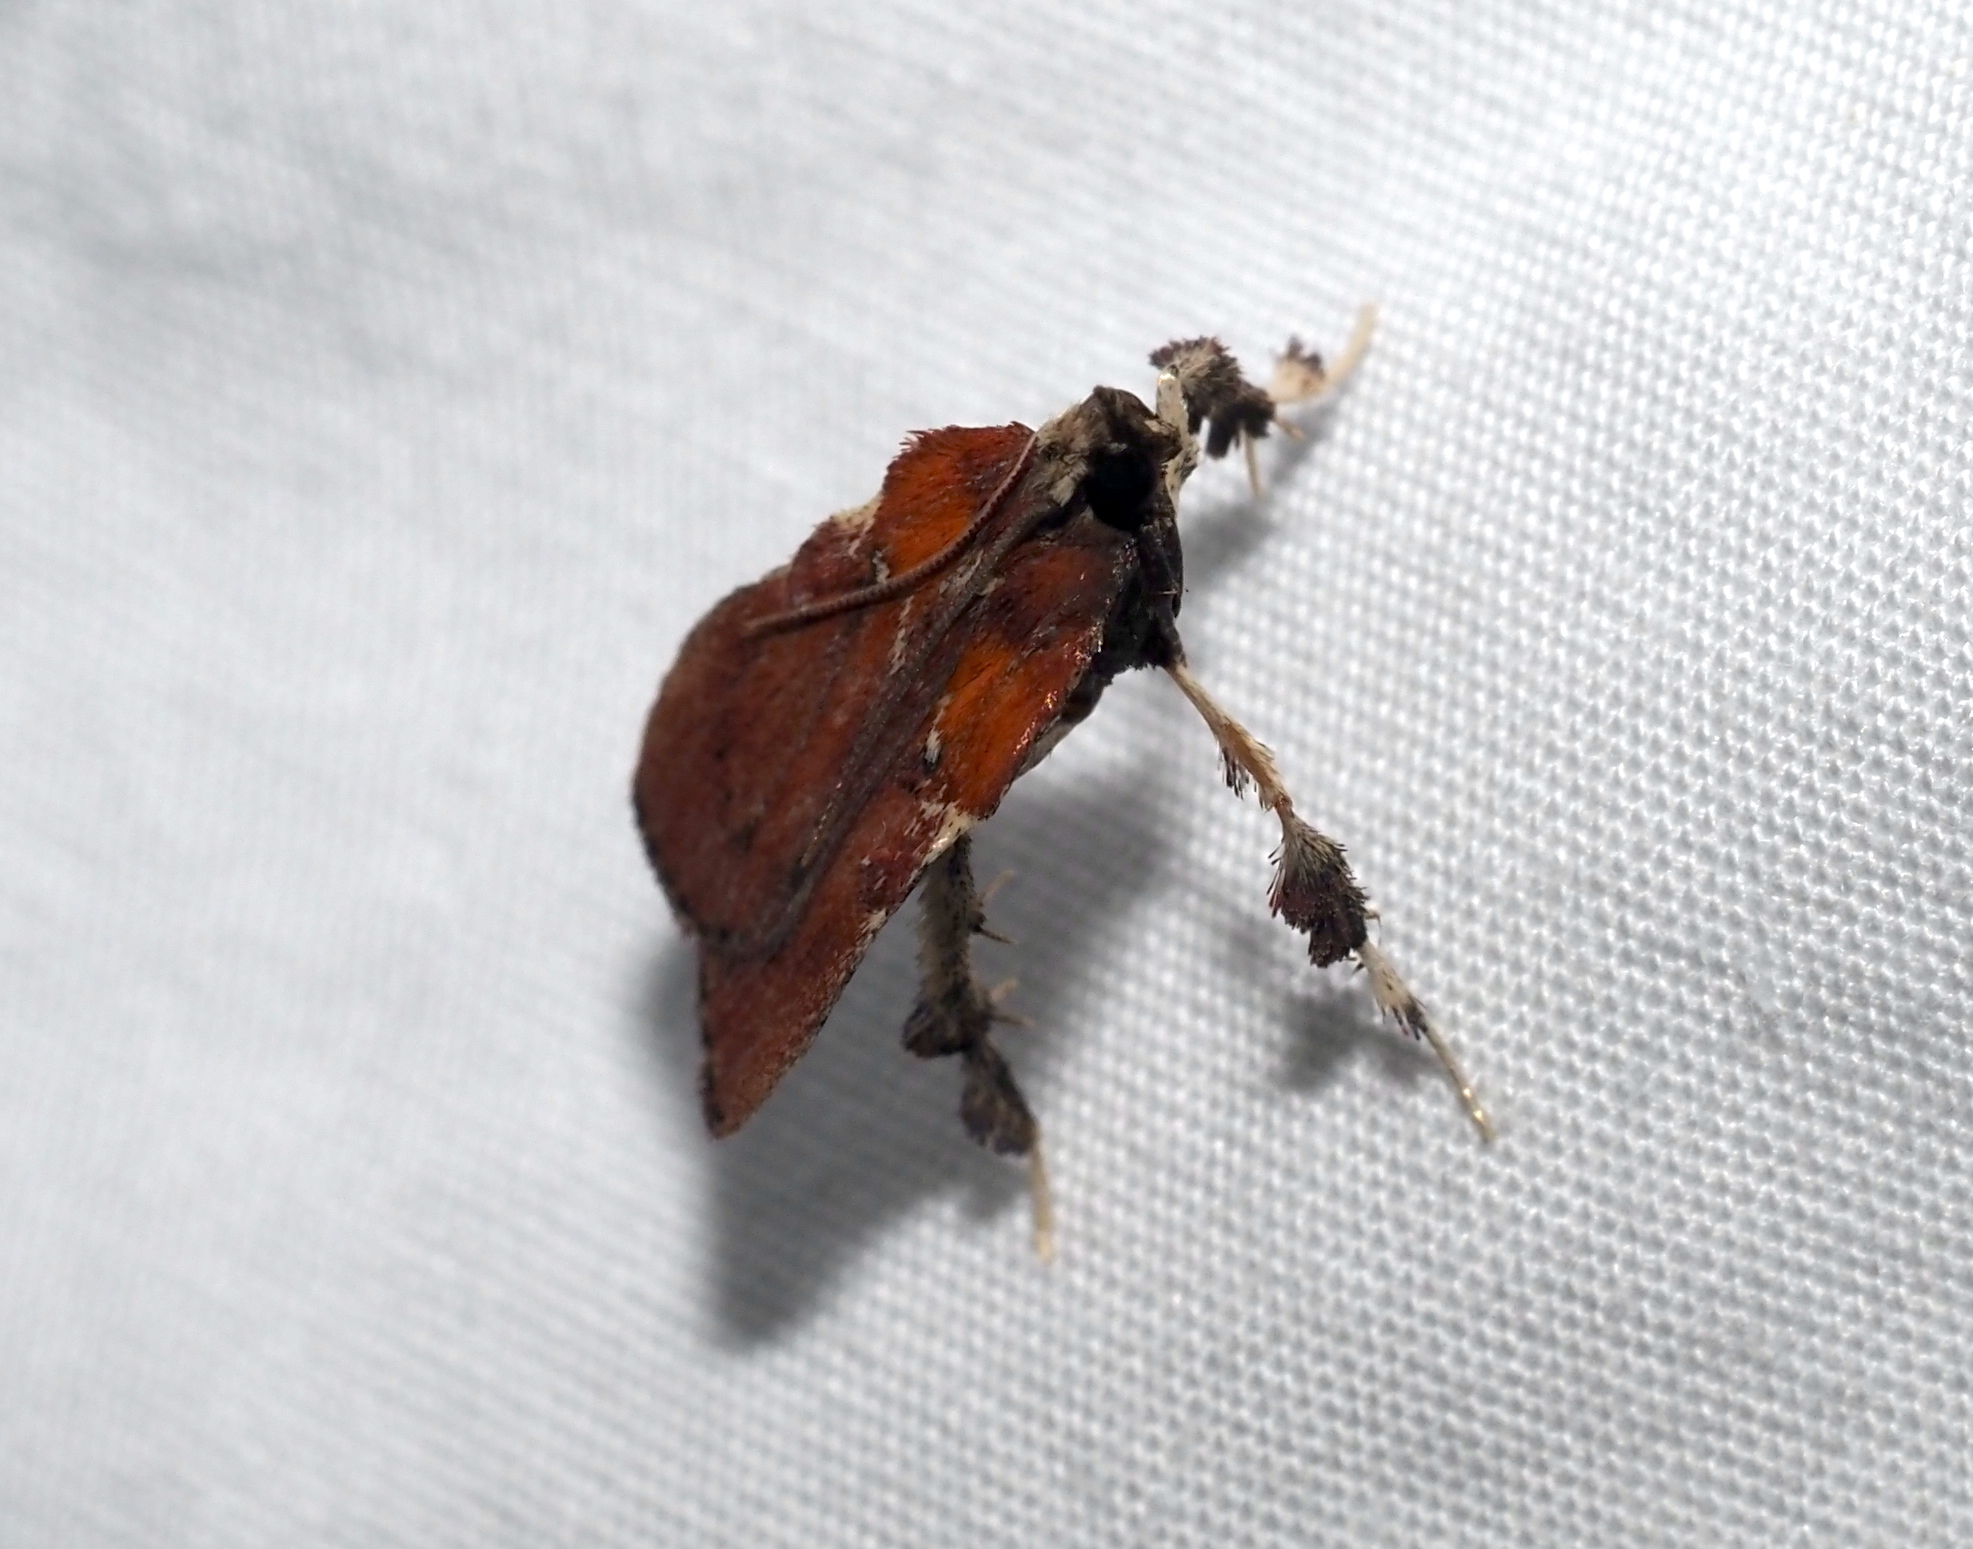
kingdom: Animalia
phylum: Arthropoda
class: Insecta
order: Lepidoptera
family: Pyralidae
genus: Galasa
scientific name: Galasa nigrinodis
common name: Boxwood leaftier moth
